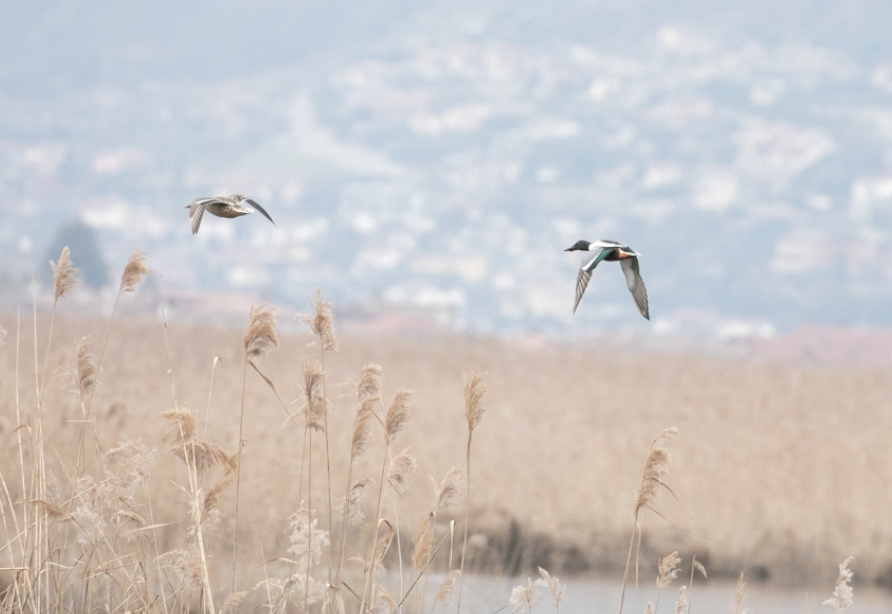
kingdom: Animalia
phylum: Chordata
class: Aves
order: Anseriformes
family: Anatidae
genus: Spatula
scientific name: Spatula clypeata
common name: Northern shoveler
